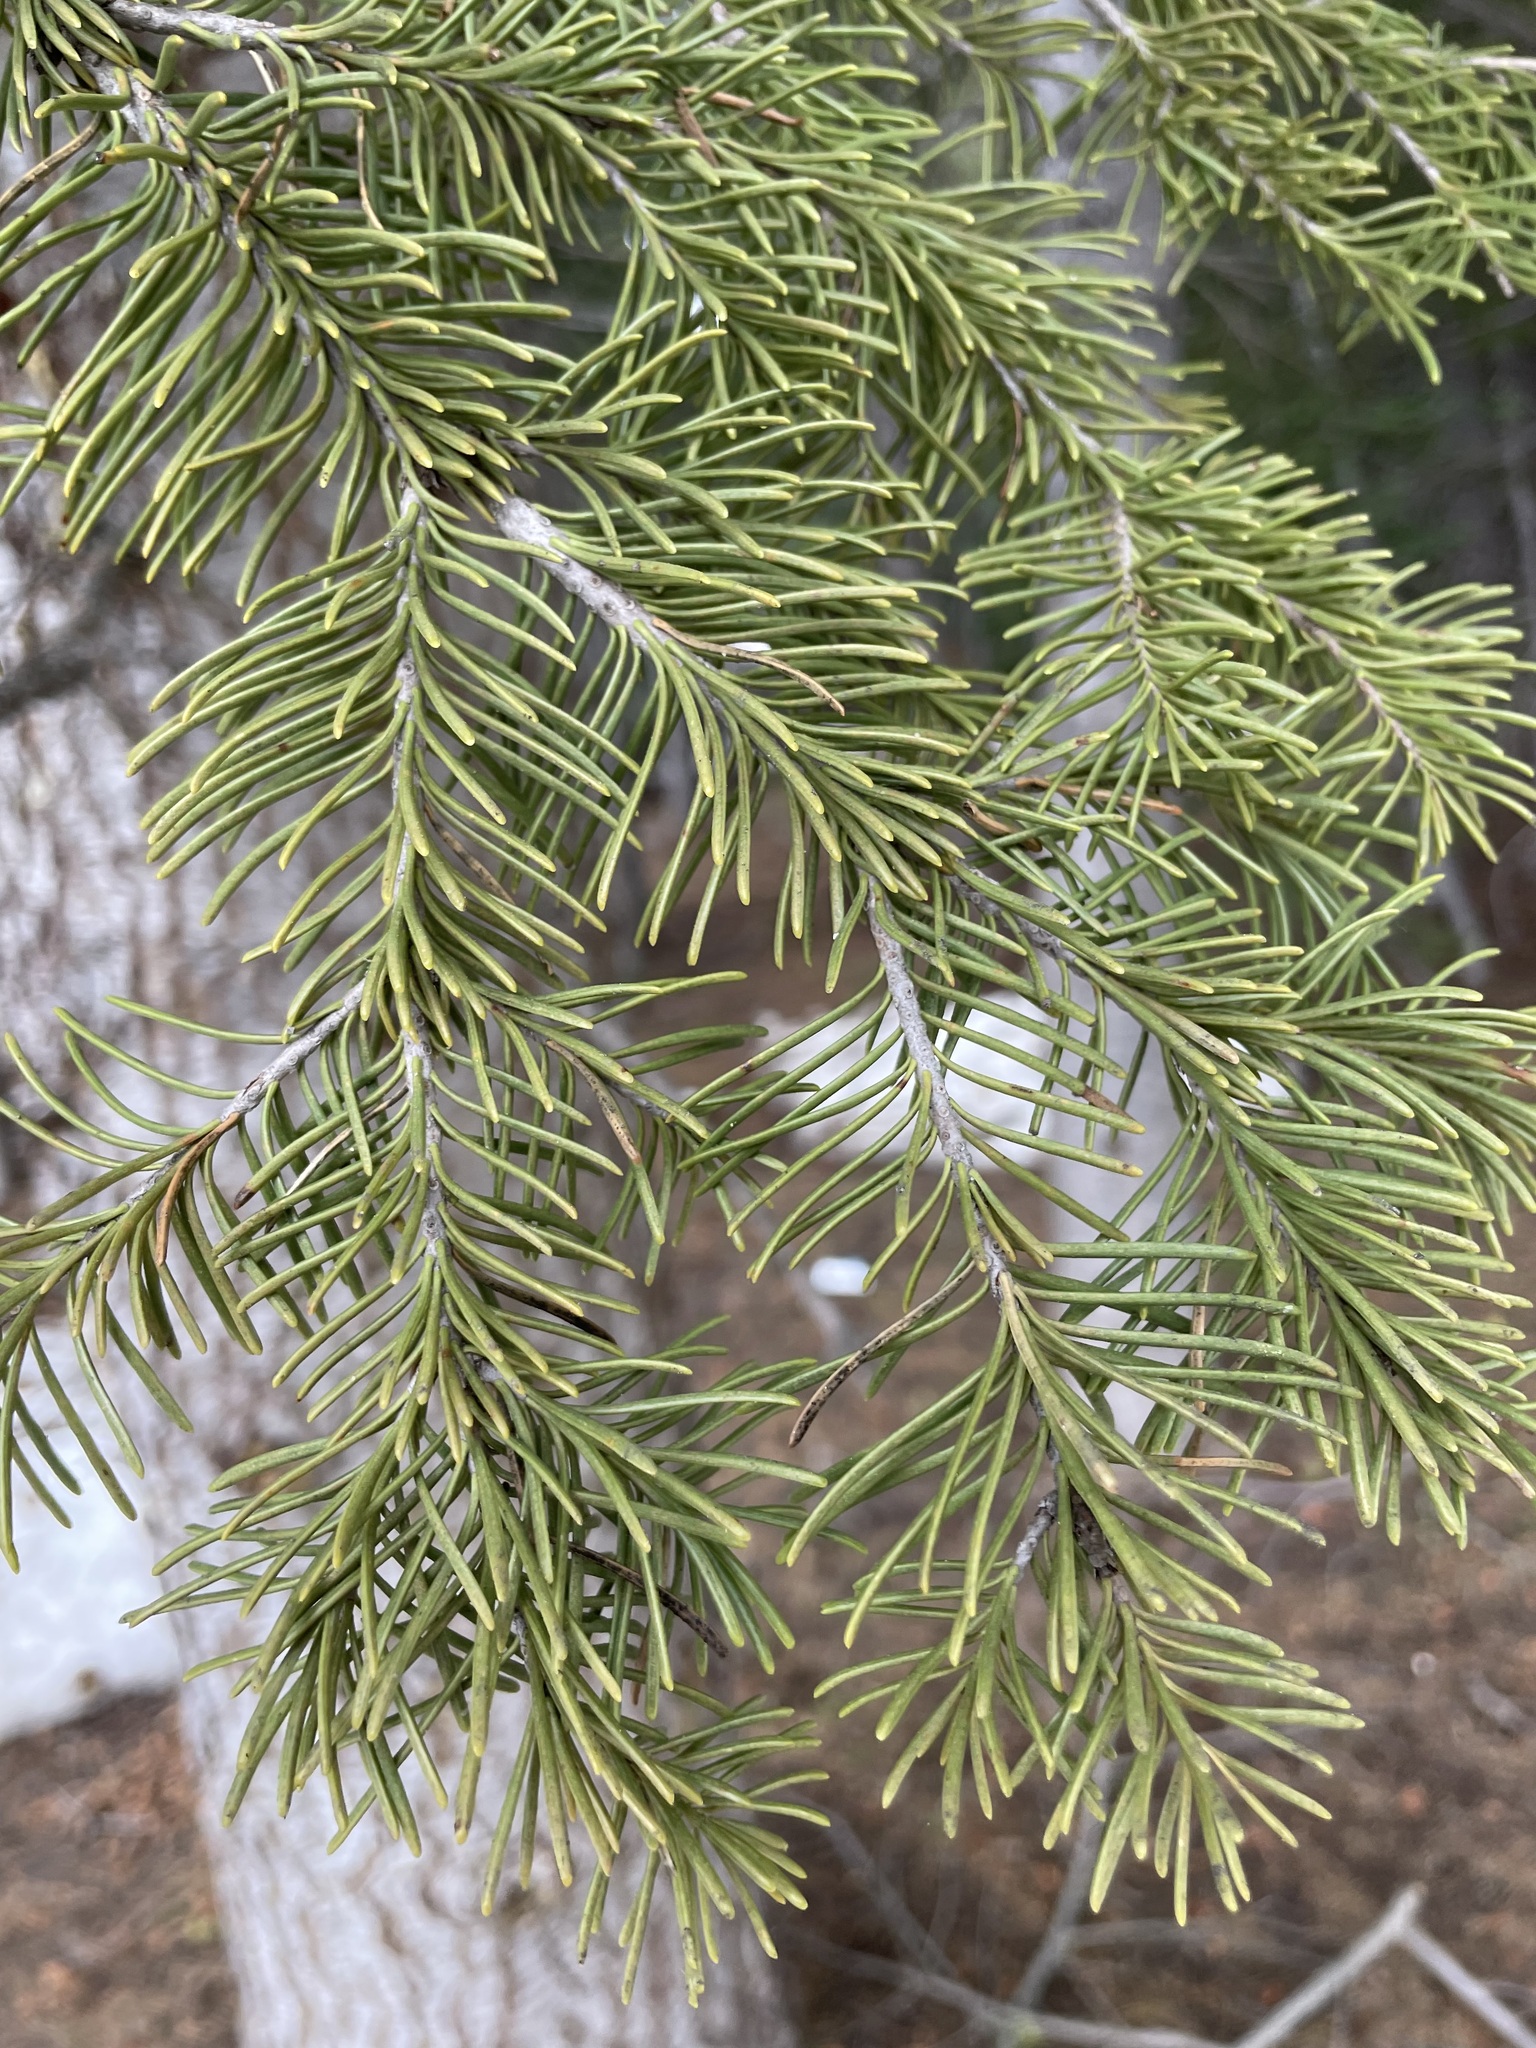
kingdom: Plantae
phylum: Tracheophyta
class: Pinopsida
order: Pinales
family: Pinaceae
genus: Abies
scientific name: Abies magnifica bis
